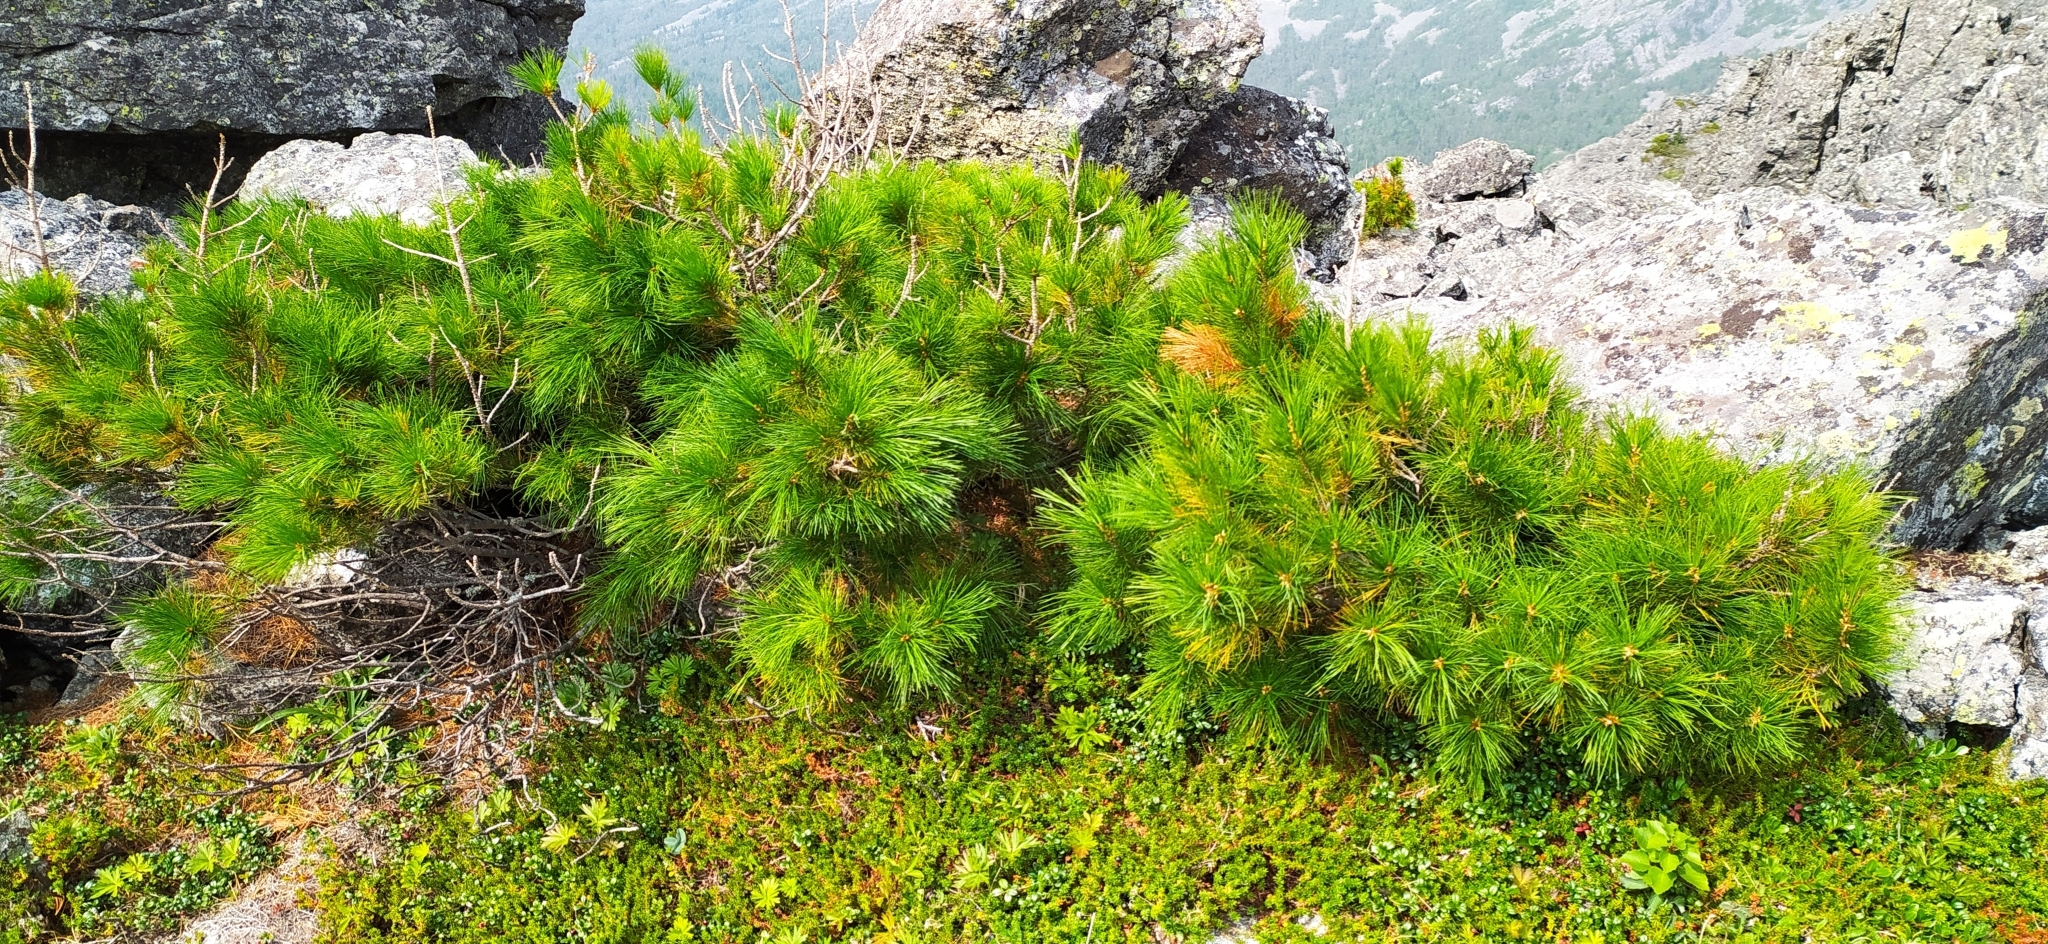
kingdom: Plantae
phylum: Tracheophyta
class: Pinopsida
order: Pinales
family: Pinaceae
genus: Pinus
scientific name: Pinus sibirica
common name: Siberian pine
